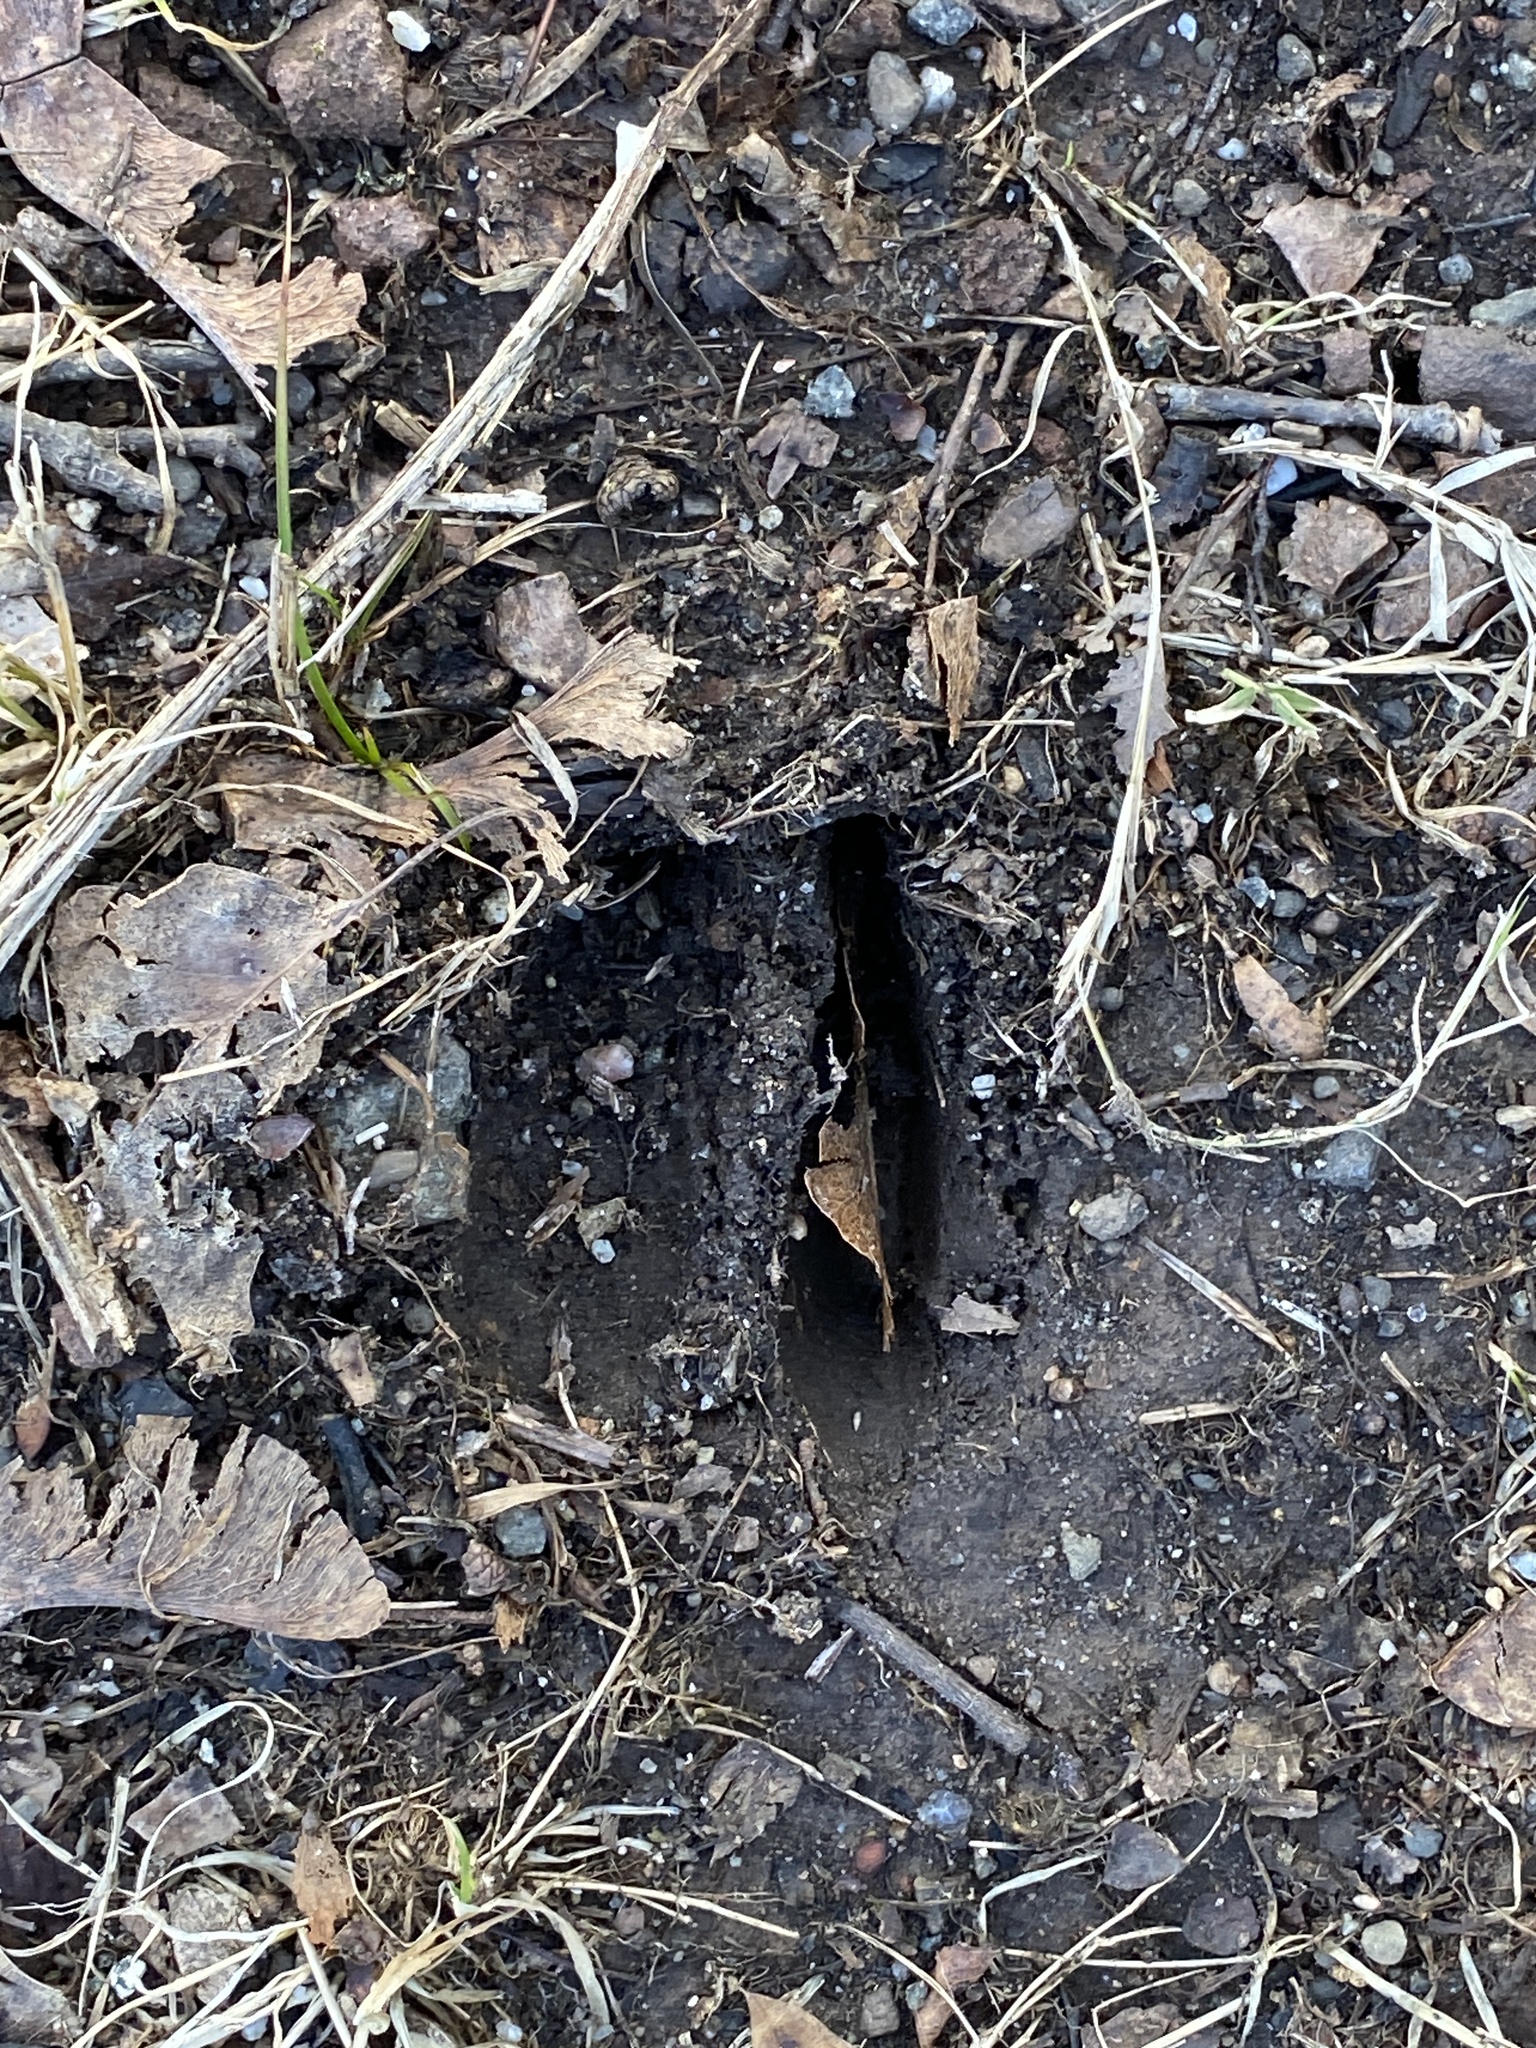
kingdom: Animalia
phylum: Chordata
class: Mammalia
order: Artiodactyla
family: Cervidae
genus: Odocoileus
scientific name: Odocoileus virginianus
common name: White-tailed deer
